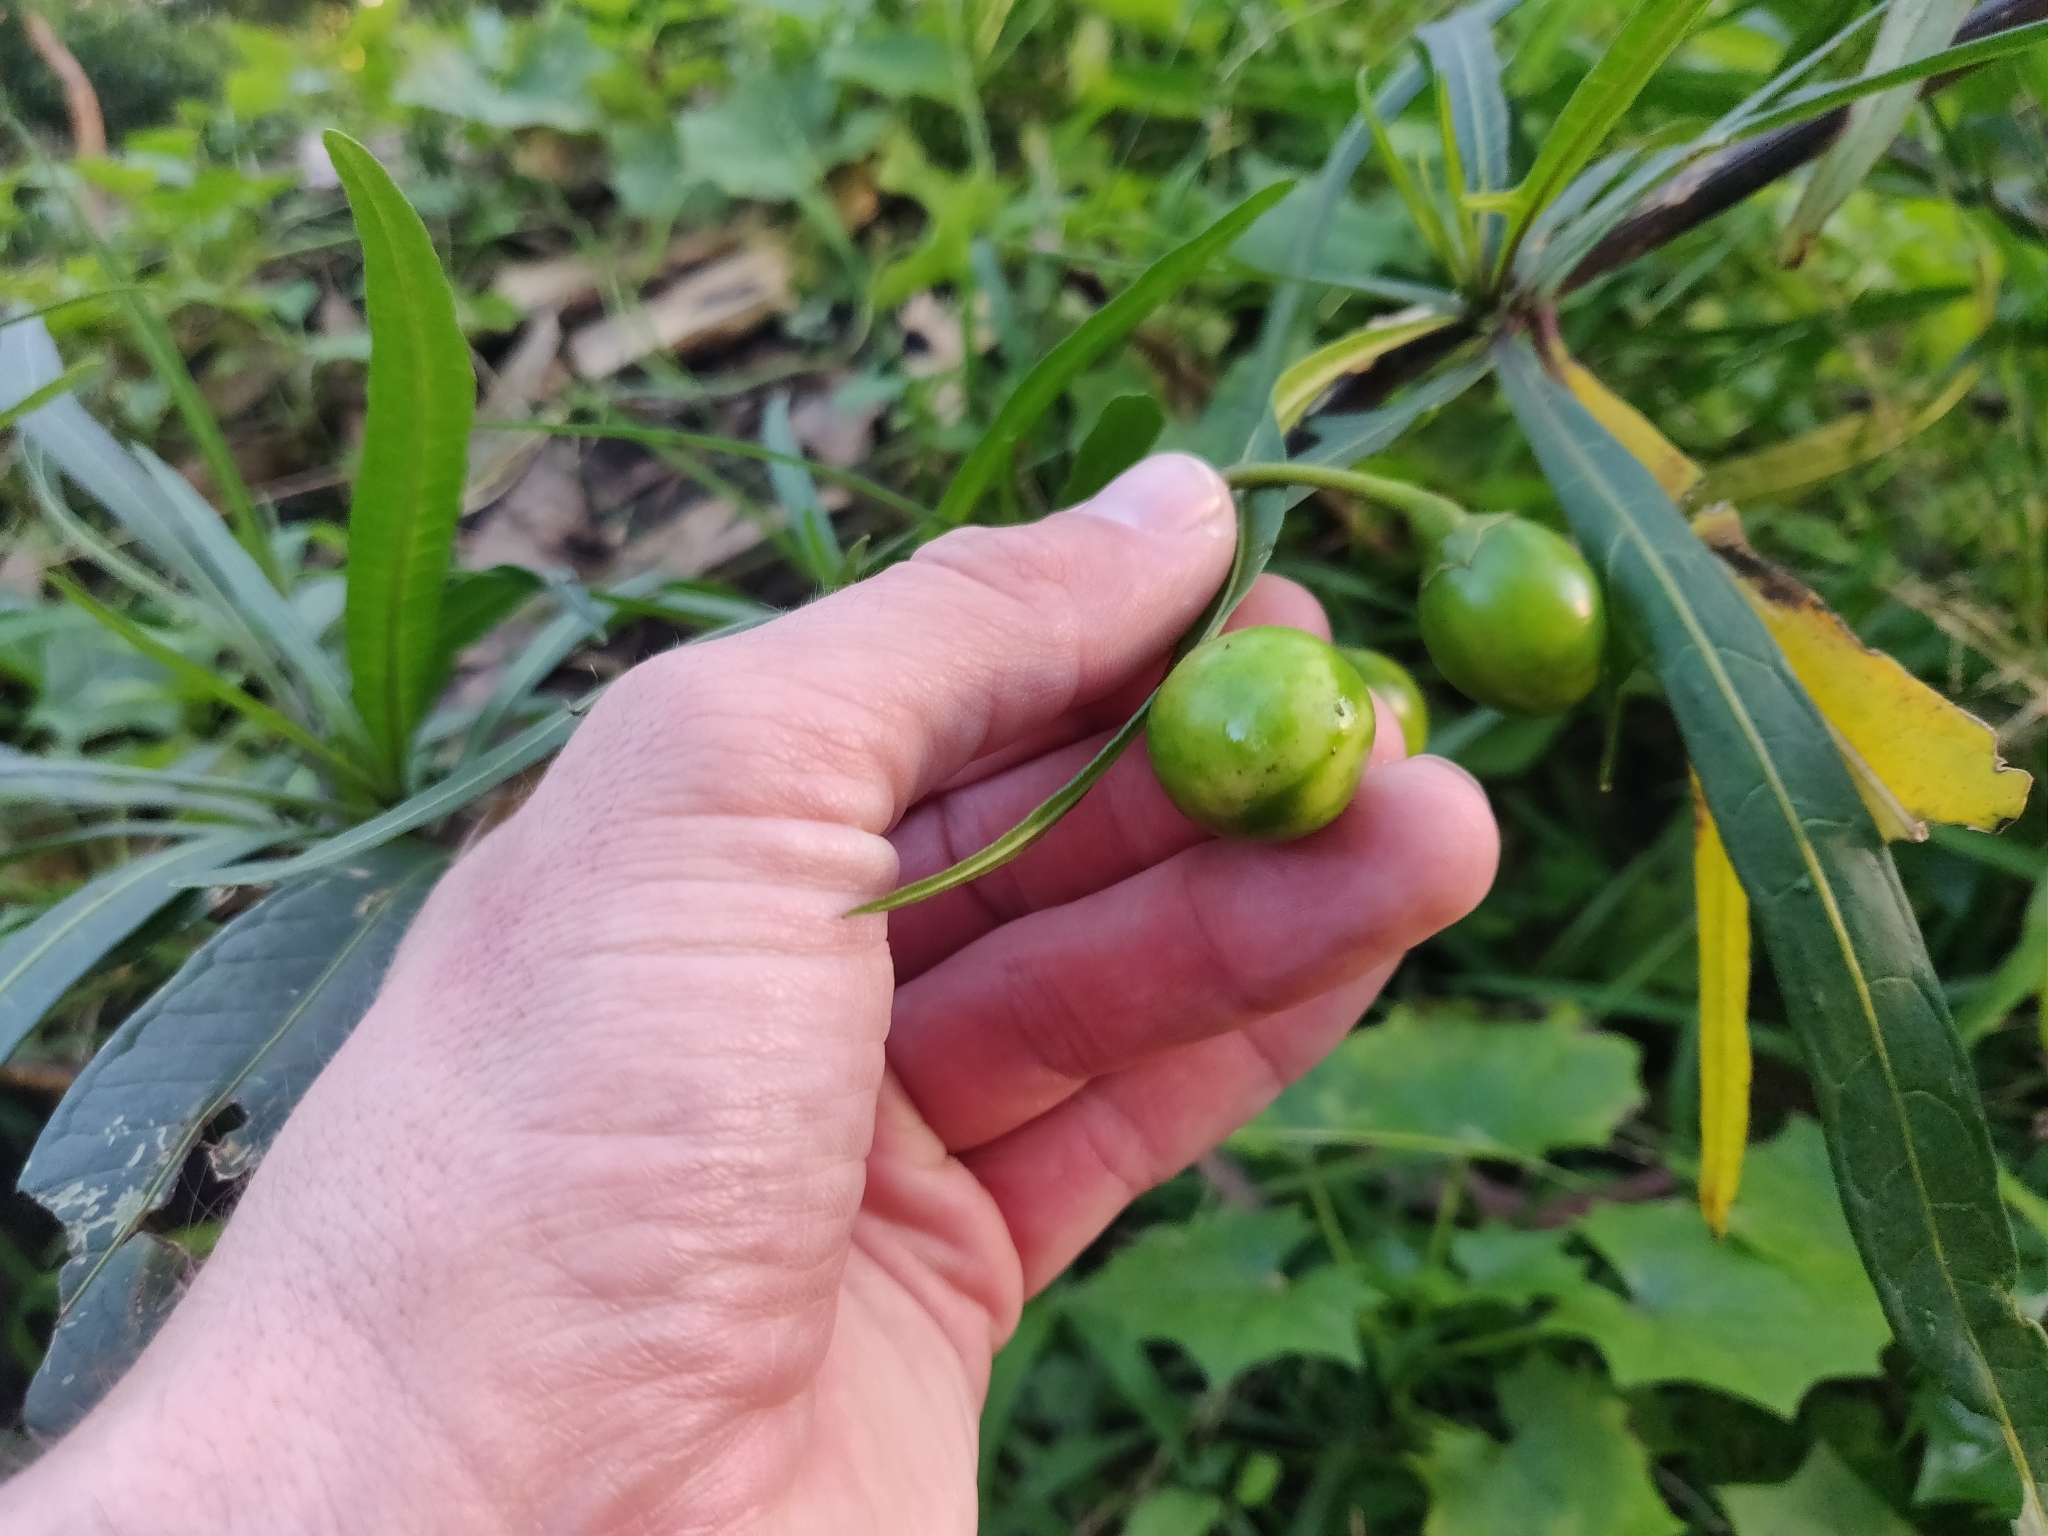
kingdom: Plantae
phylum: Tracheophyta
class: Magnoliopsida
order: Solanales
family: Solanaceae
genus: Solanum
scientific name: Solanum laciniatum
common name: Kangaroo-apple
